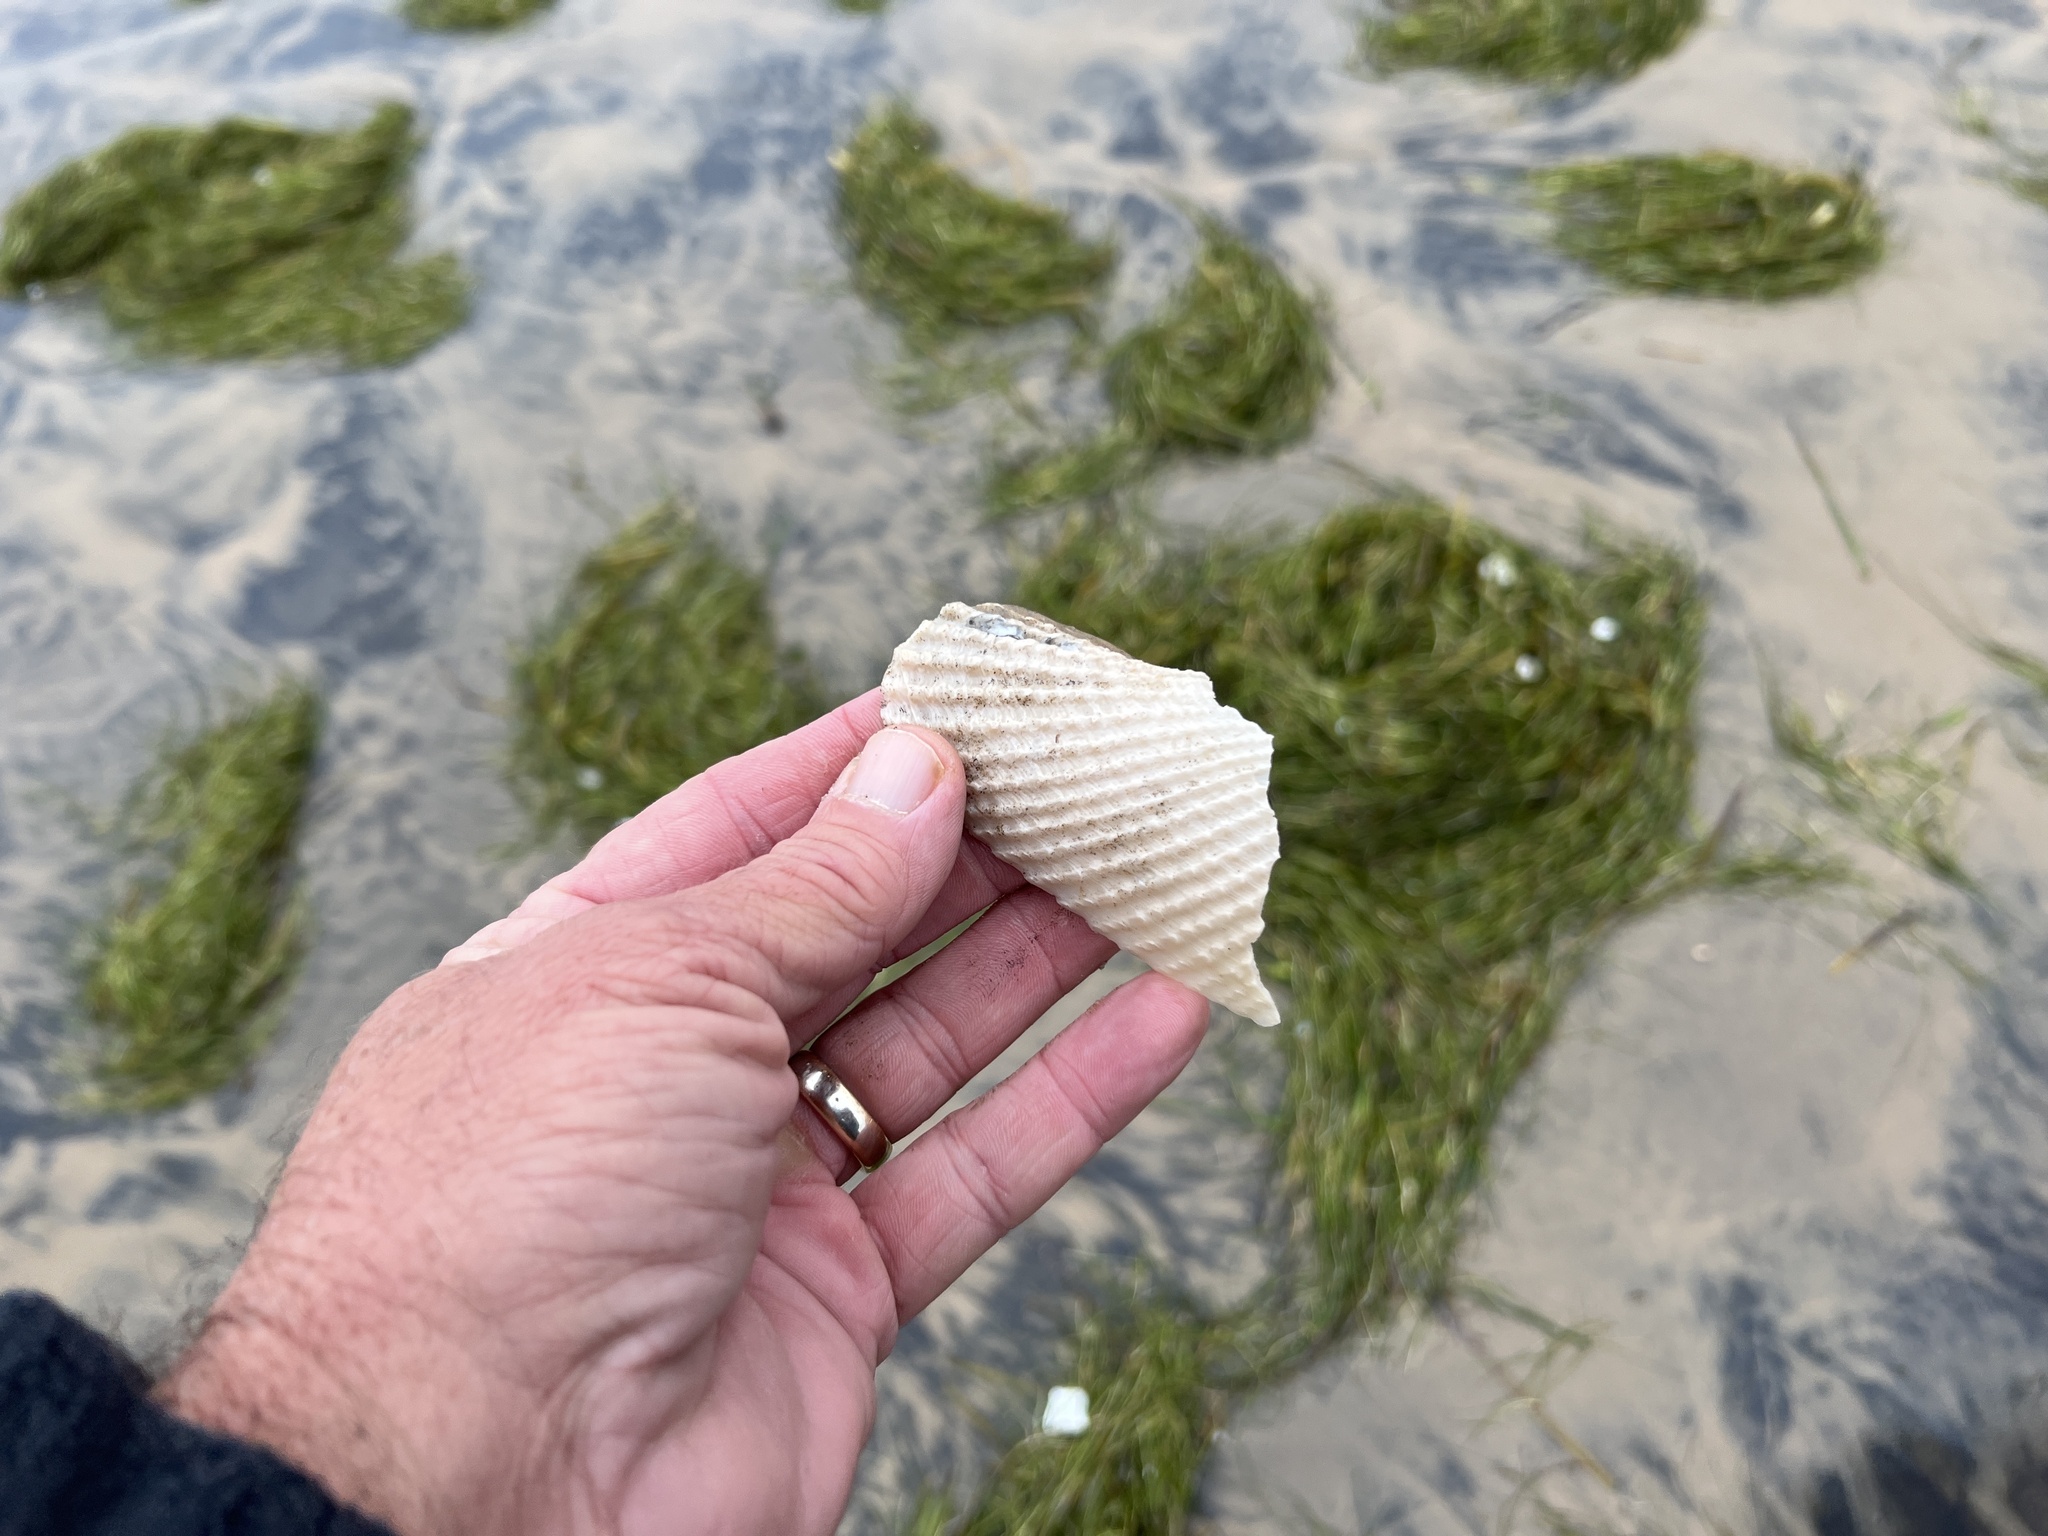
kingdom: Animalia
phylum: Mollusca
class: Bivalvia
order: Myida
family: Pholadidae
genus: Cyrtopleura
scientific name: Cyrtopleura costata
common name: Angel wing
